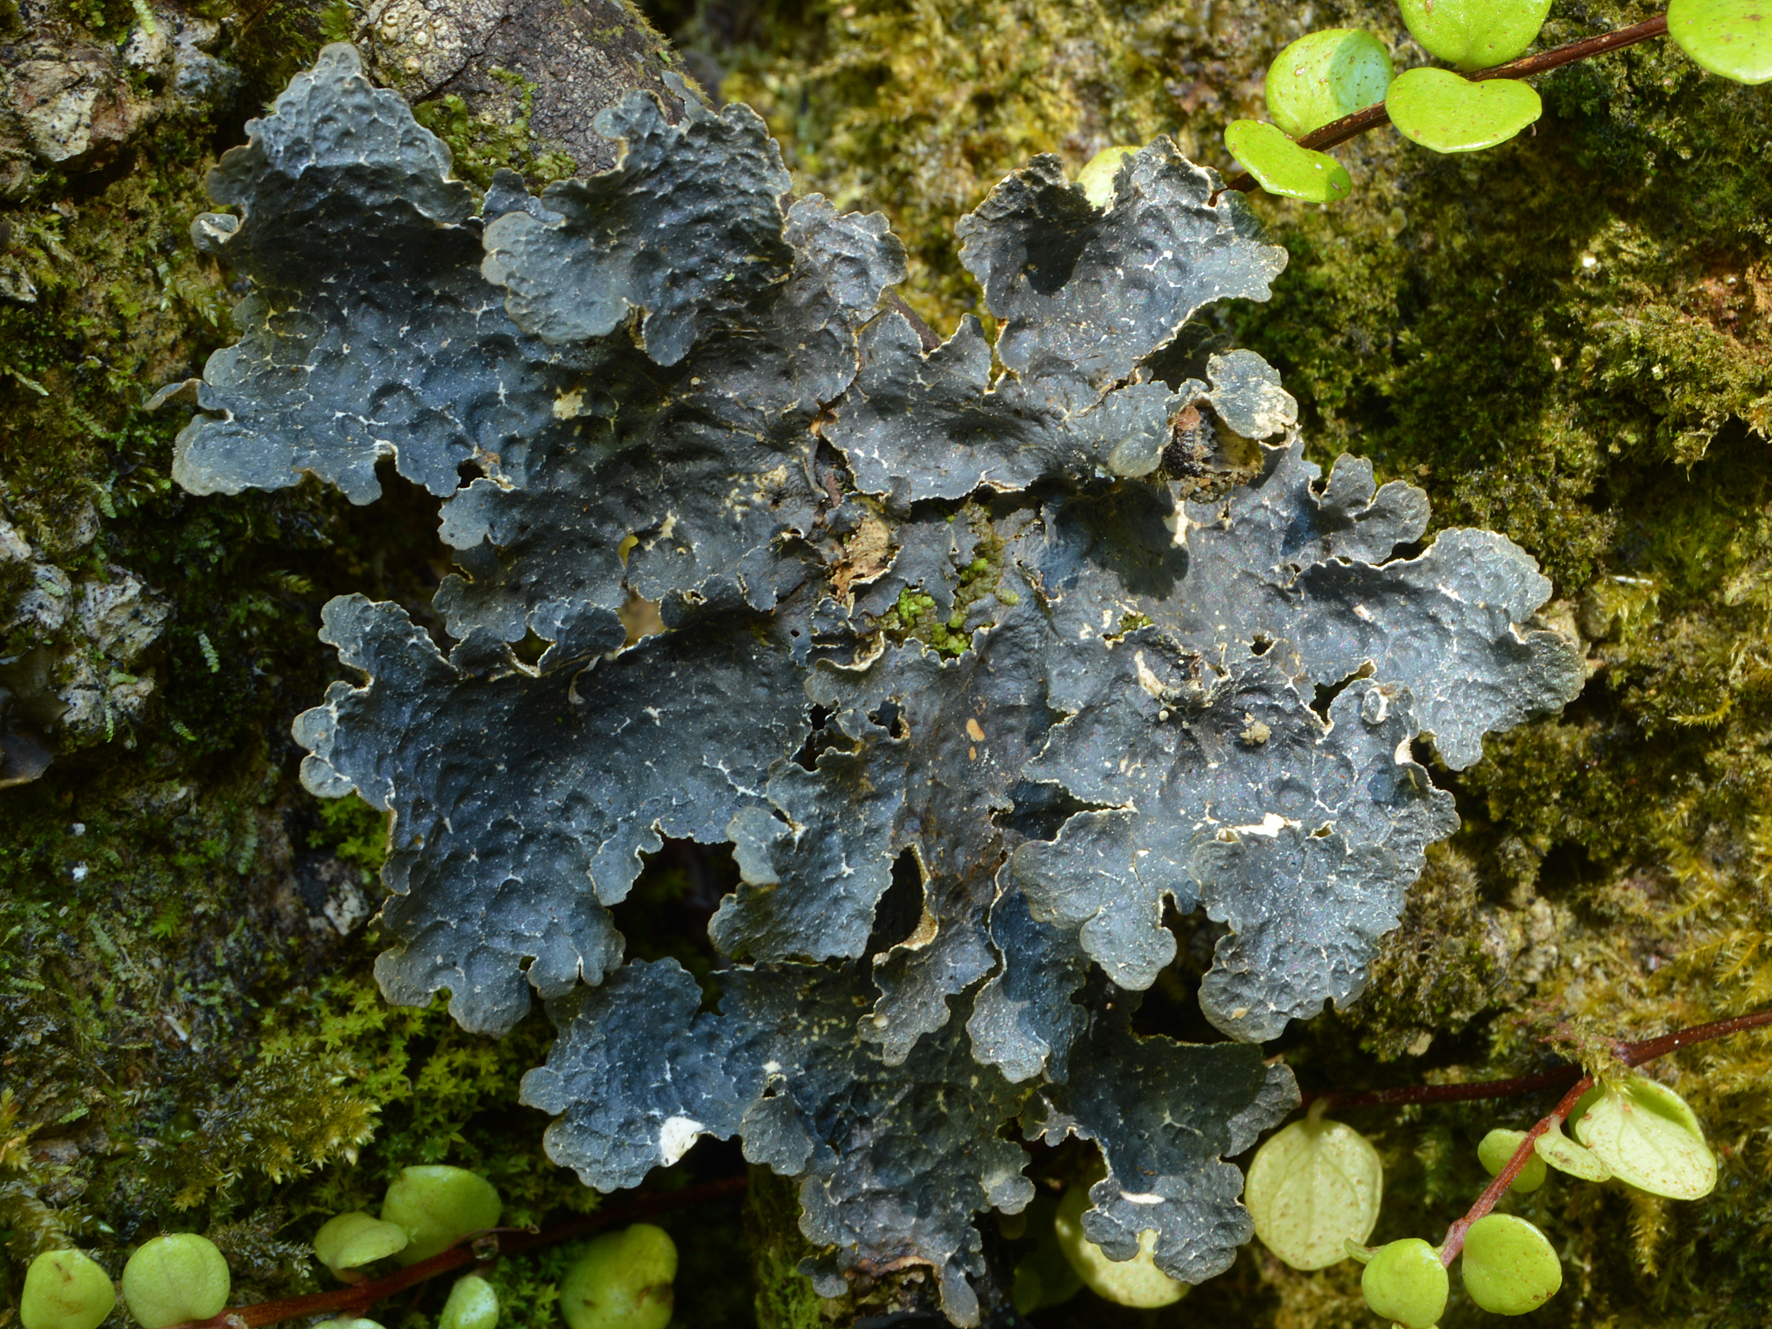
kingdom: Fungi
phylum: Ascomycota
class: Lecanoromycetes
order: Peltigerales
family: Lobariaceae
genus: Pseudocyphellaria
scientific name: Pseudocyphellaria hookeri
